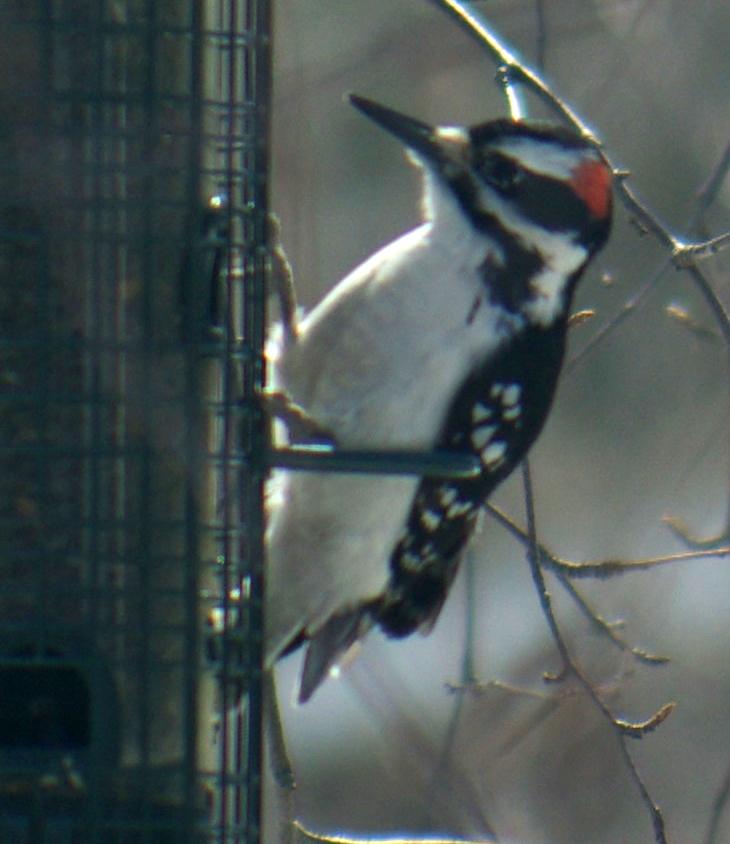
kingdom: Animalia
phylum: Chordata
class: Aves
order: Piciformes
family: Picidae
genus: Leuconotopicus
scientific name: Leuconotopicus villosus
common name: Hairy woodpecker
